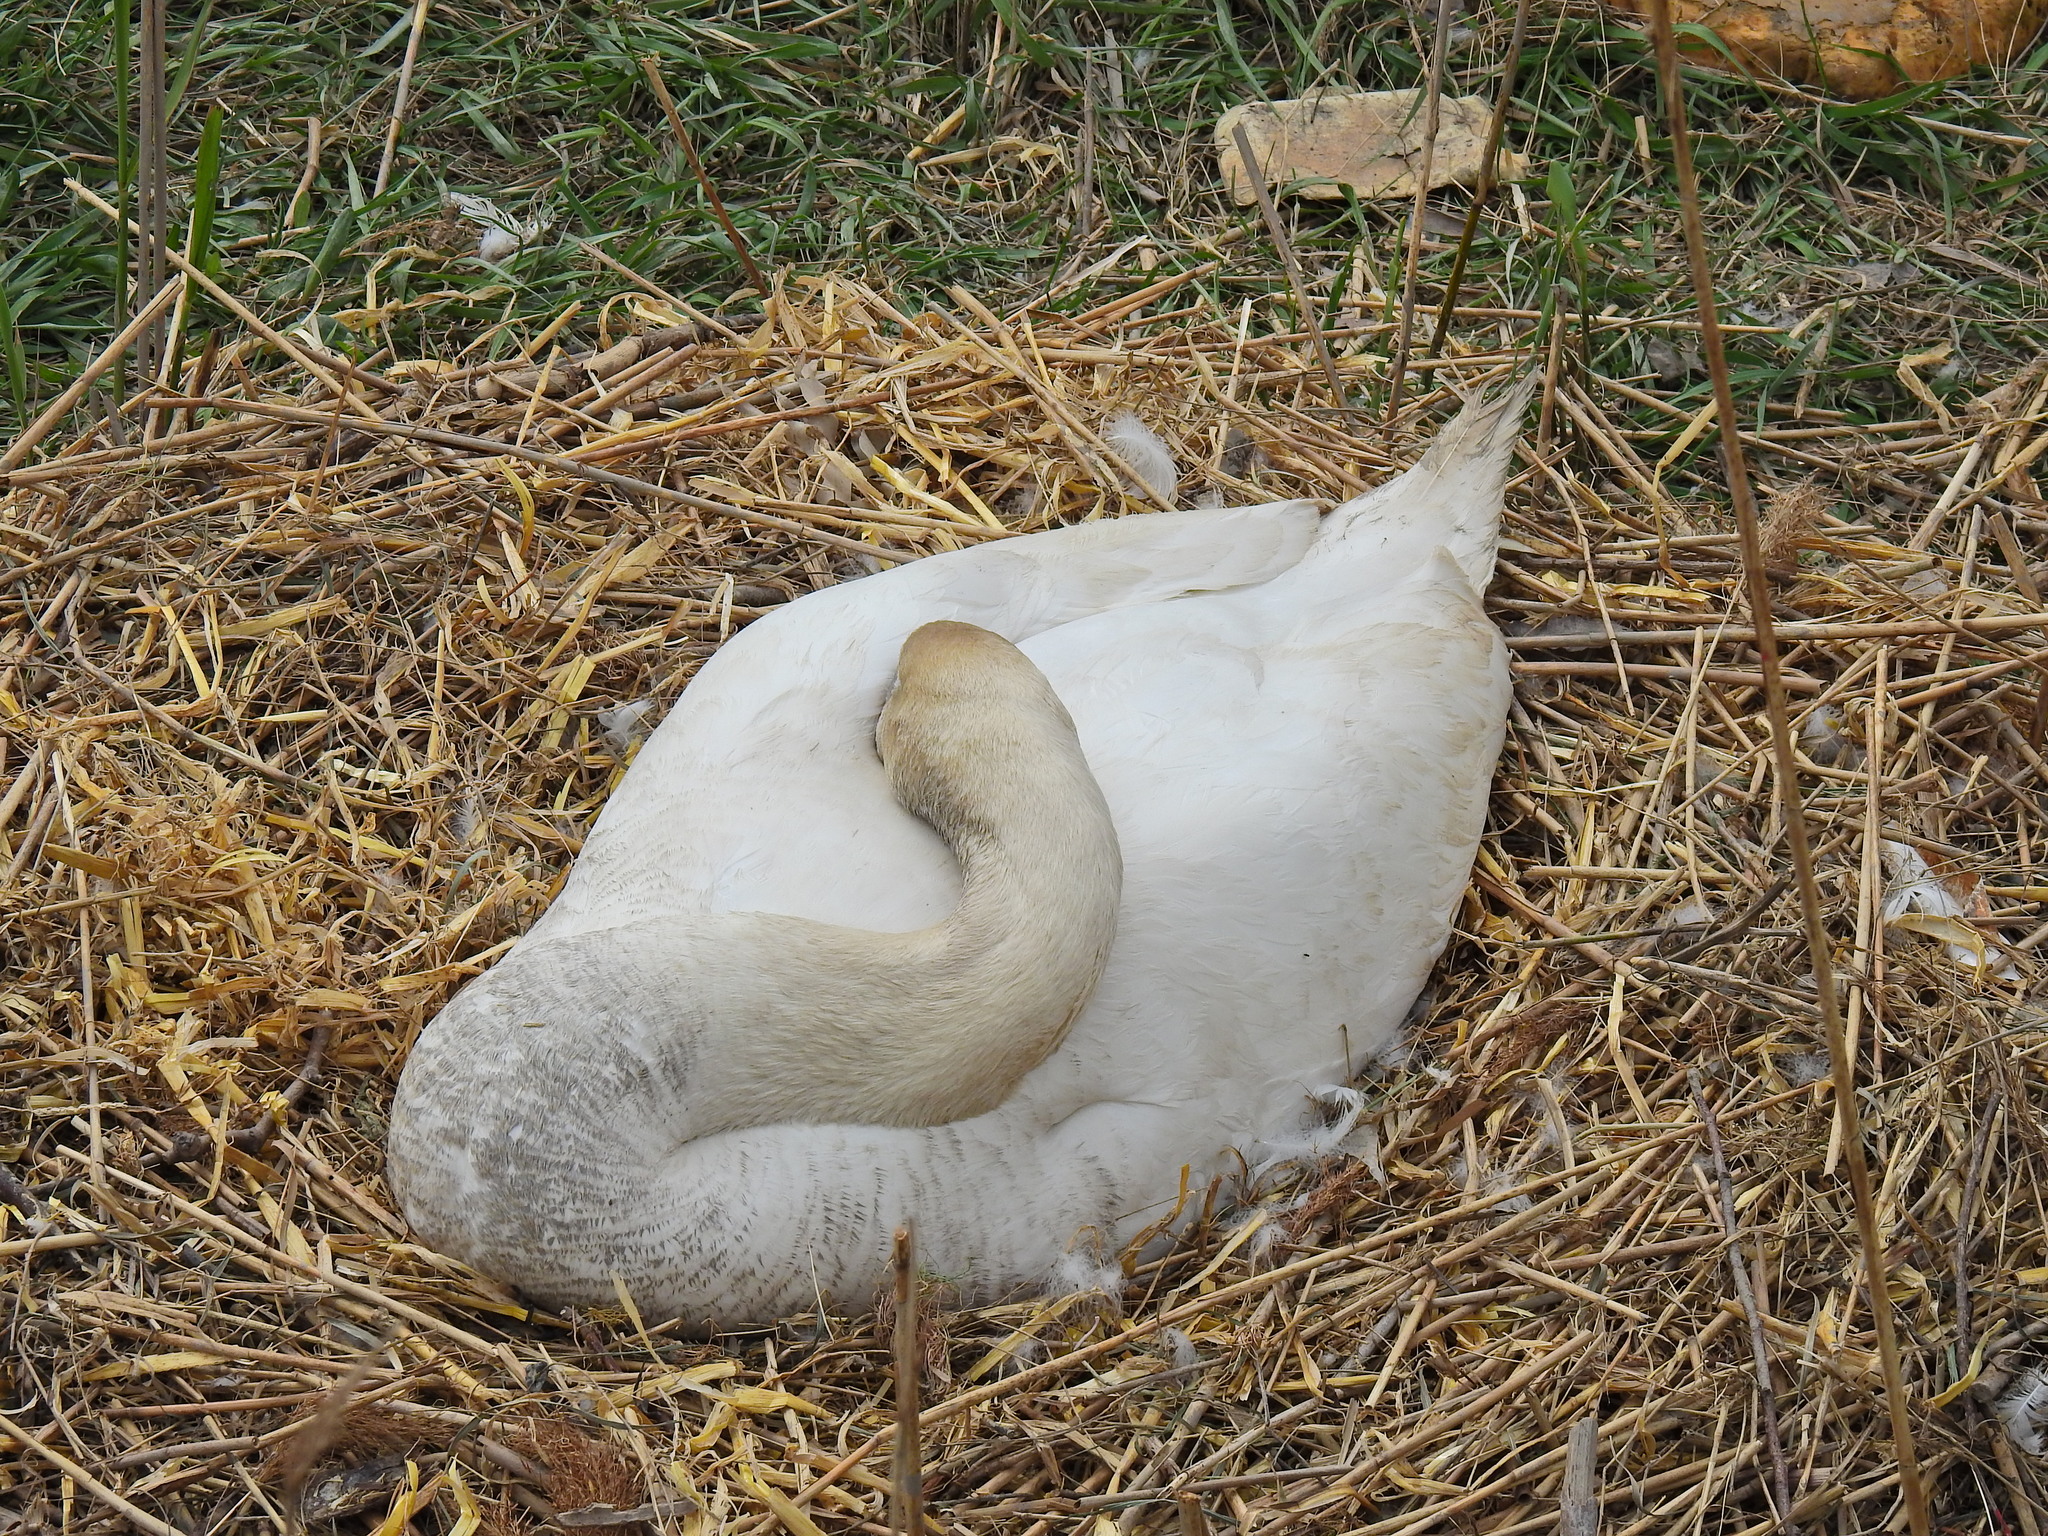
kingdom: Animalia
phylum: Chordata
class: Aves
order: Anseriformes
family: Anatidae
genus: Cygnus
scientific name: Cygnus olor
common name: Mute swan
